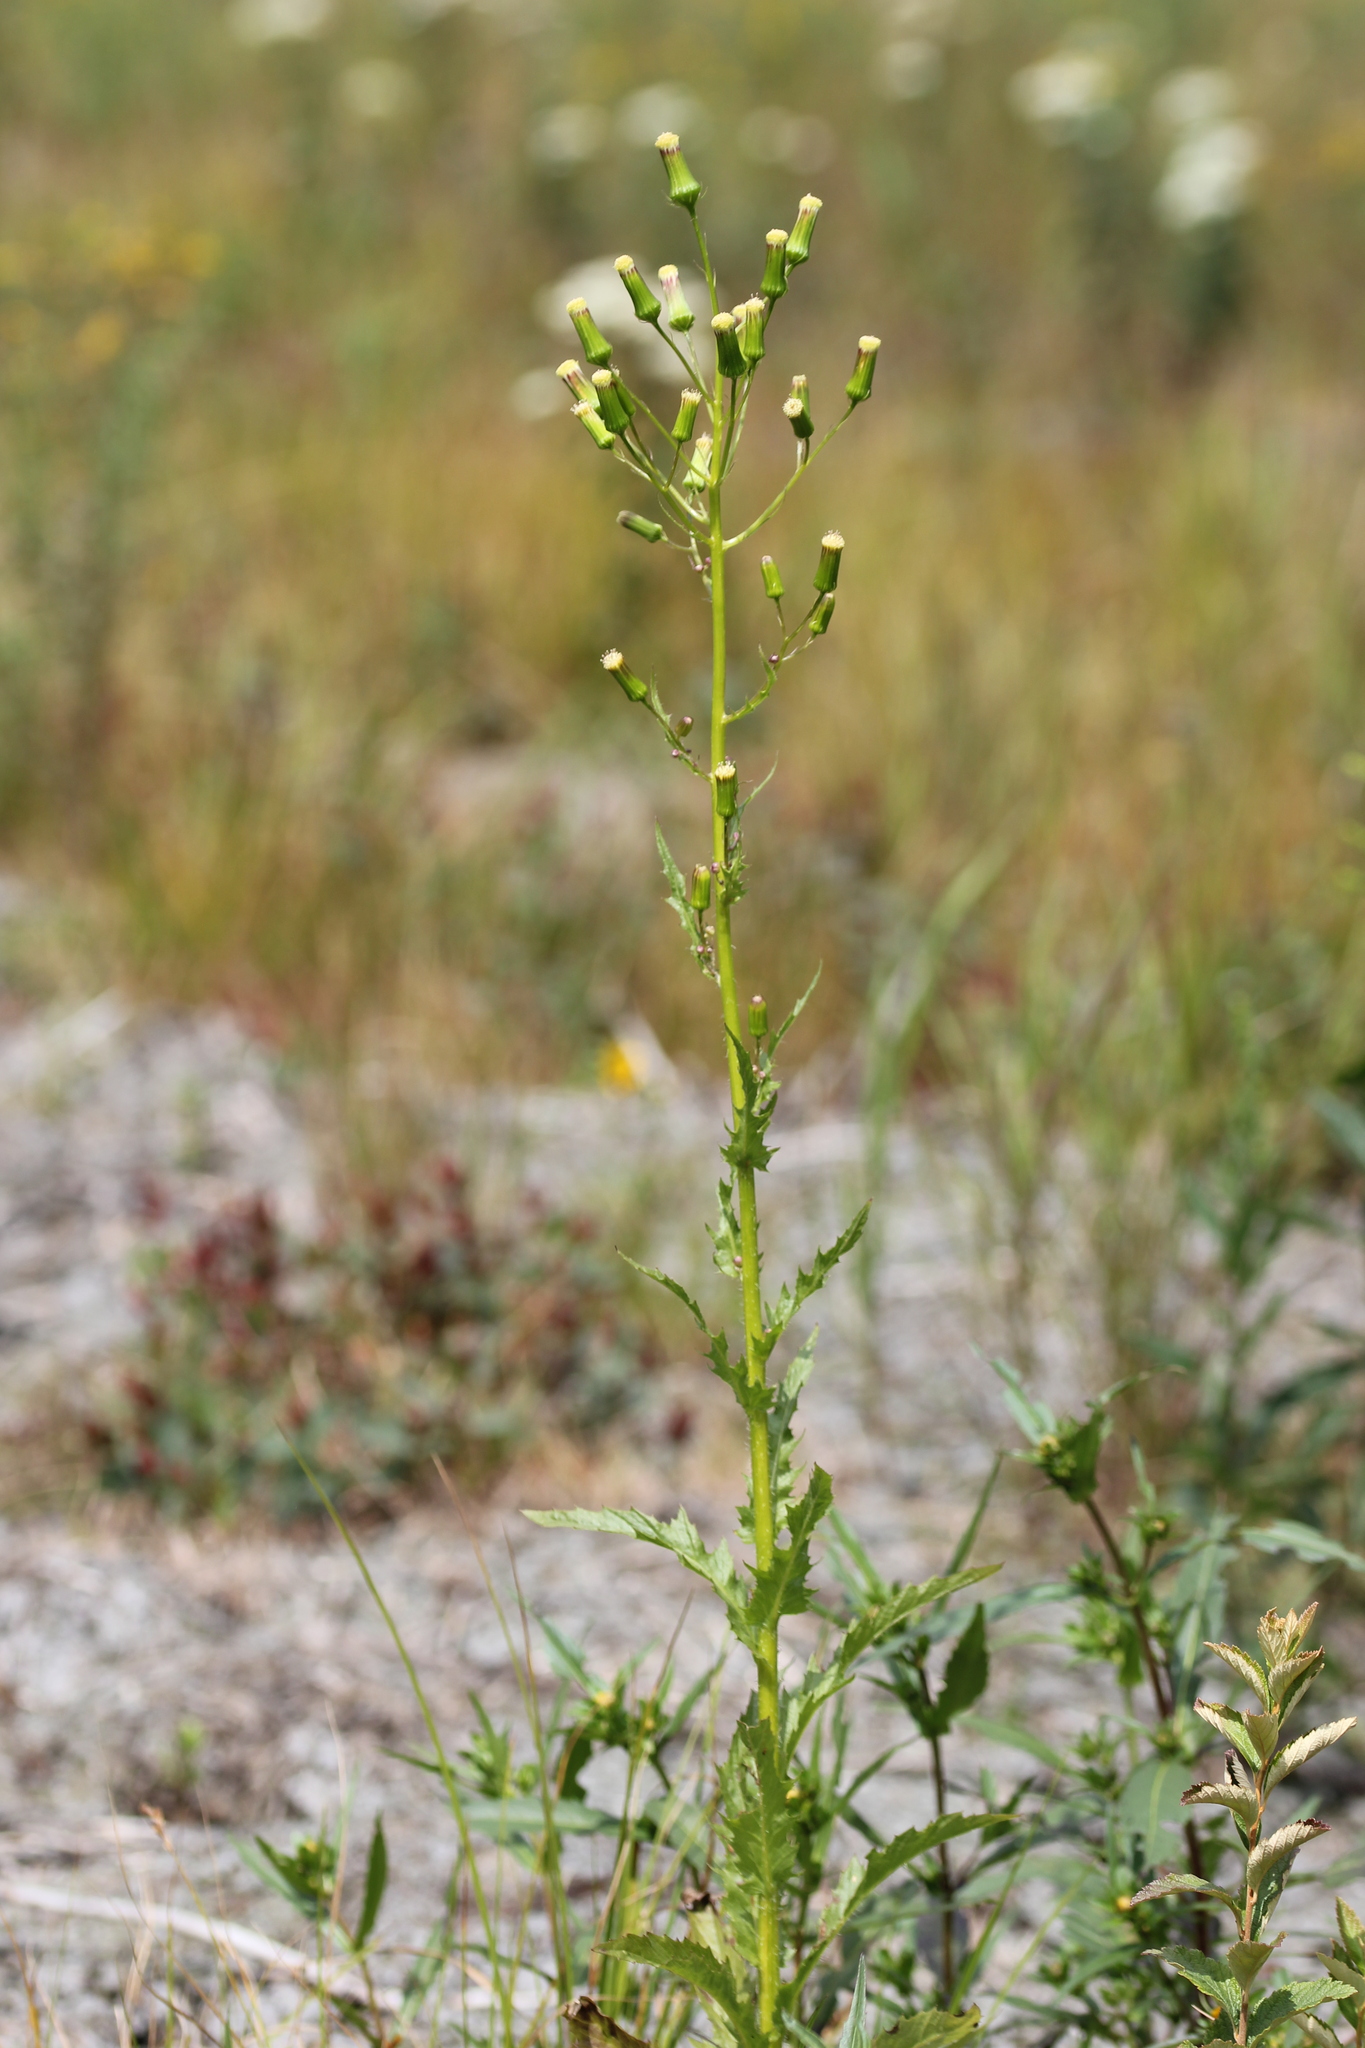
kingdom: Plantae
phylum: Tracheophyta
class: Magnoliopsida
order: Asterales
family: Asteraceae
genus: Erechtites
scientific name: Erechtites hieraciifolius
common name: American burnweed
